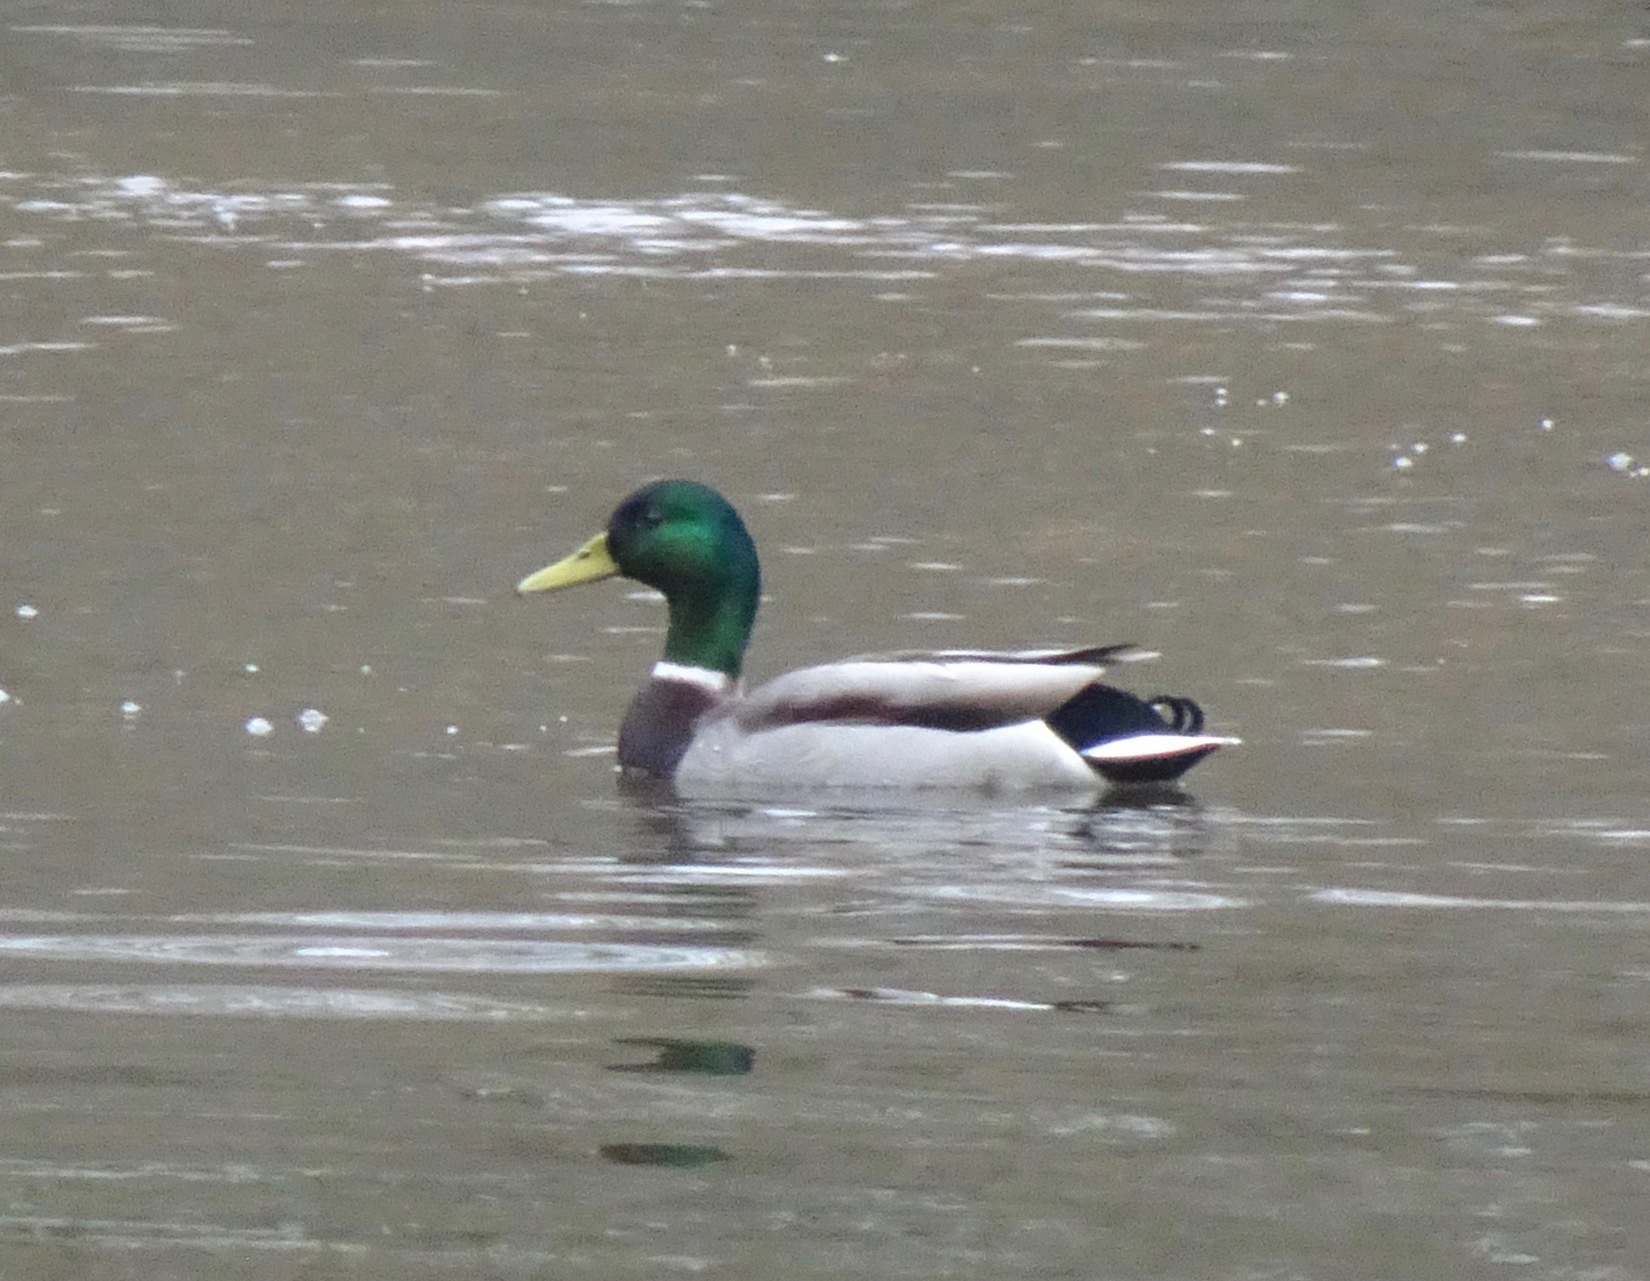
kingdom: Animalia
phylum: Chordata
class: Aves
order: Anseriformes
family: Anatidae
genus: Anas
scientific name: Anas platyrhynchos
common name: Mallard
